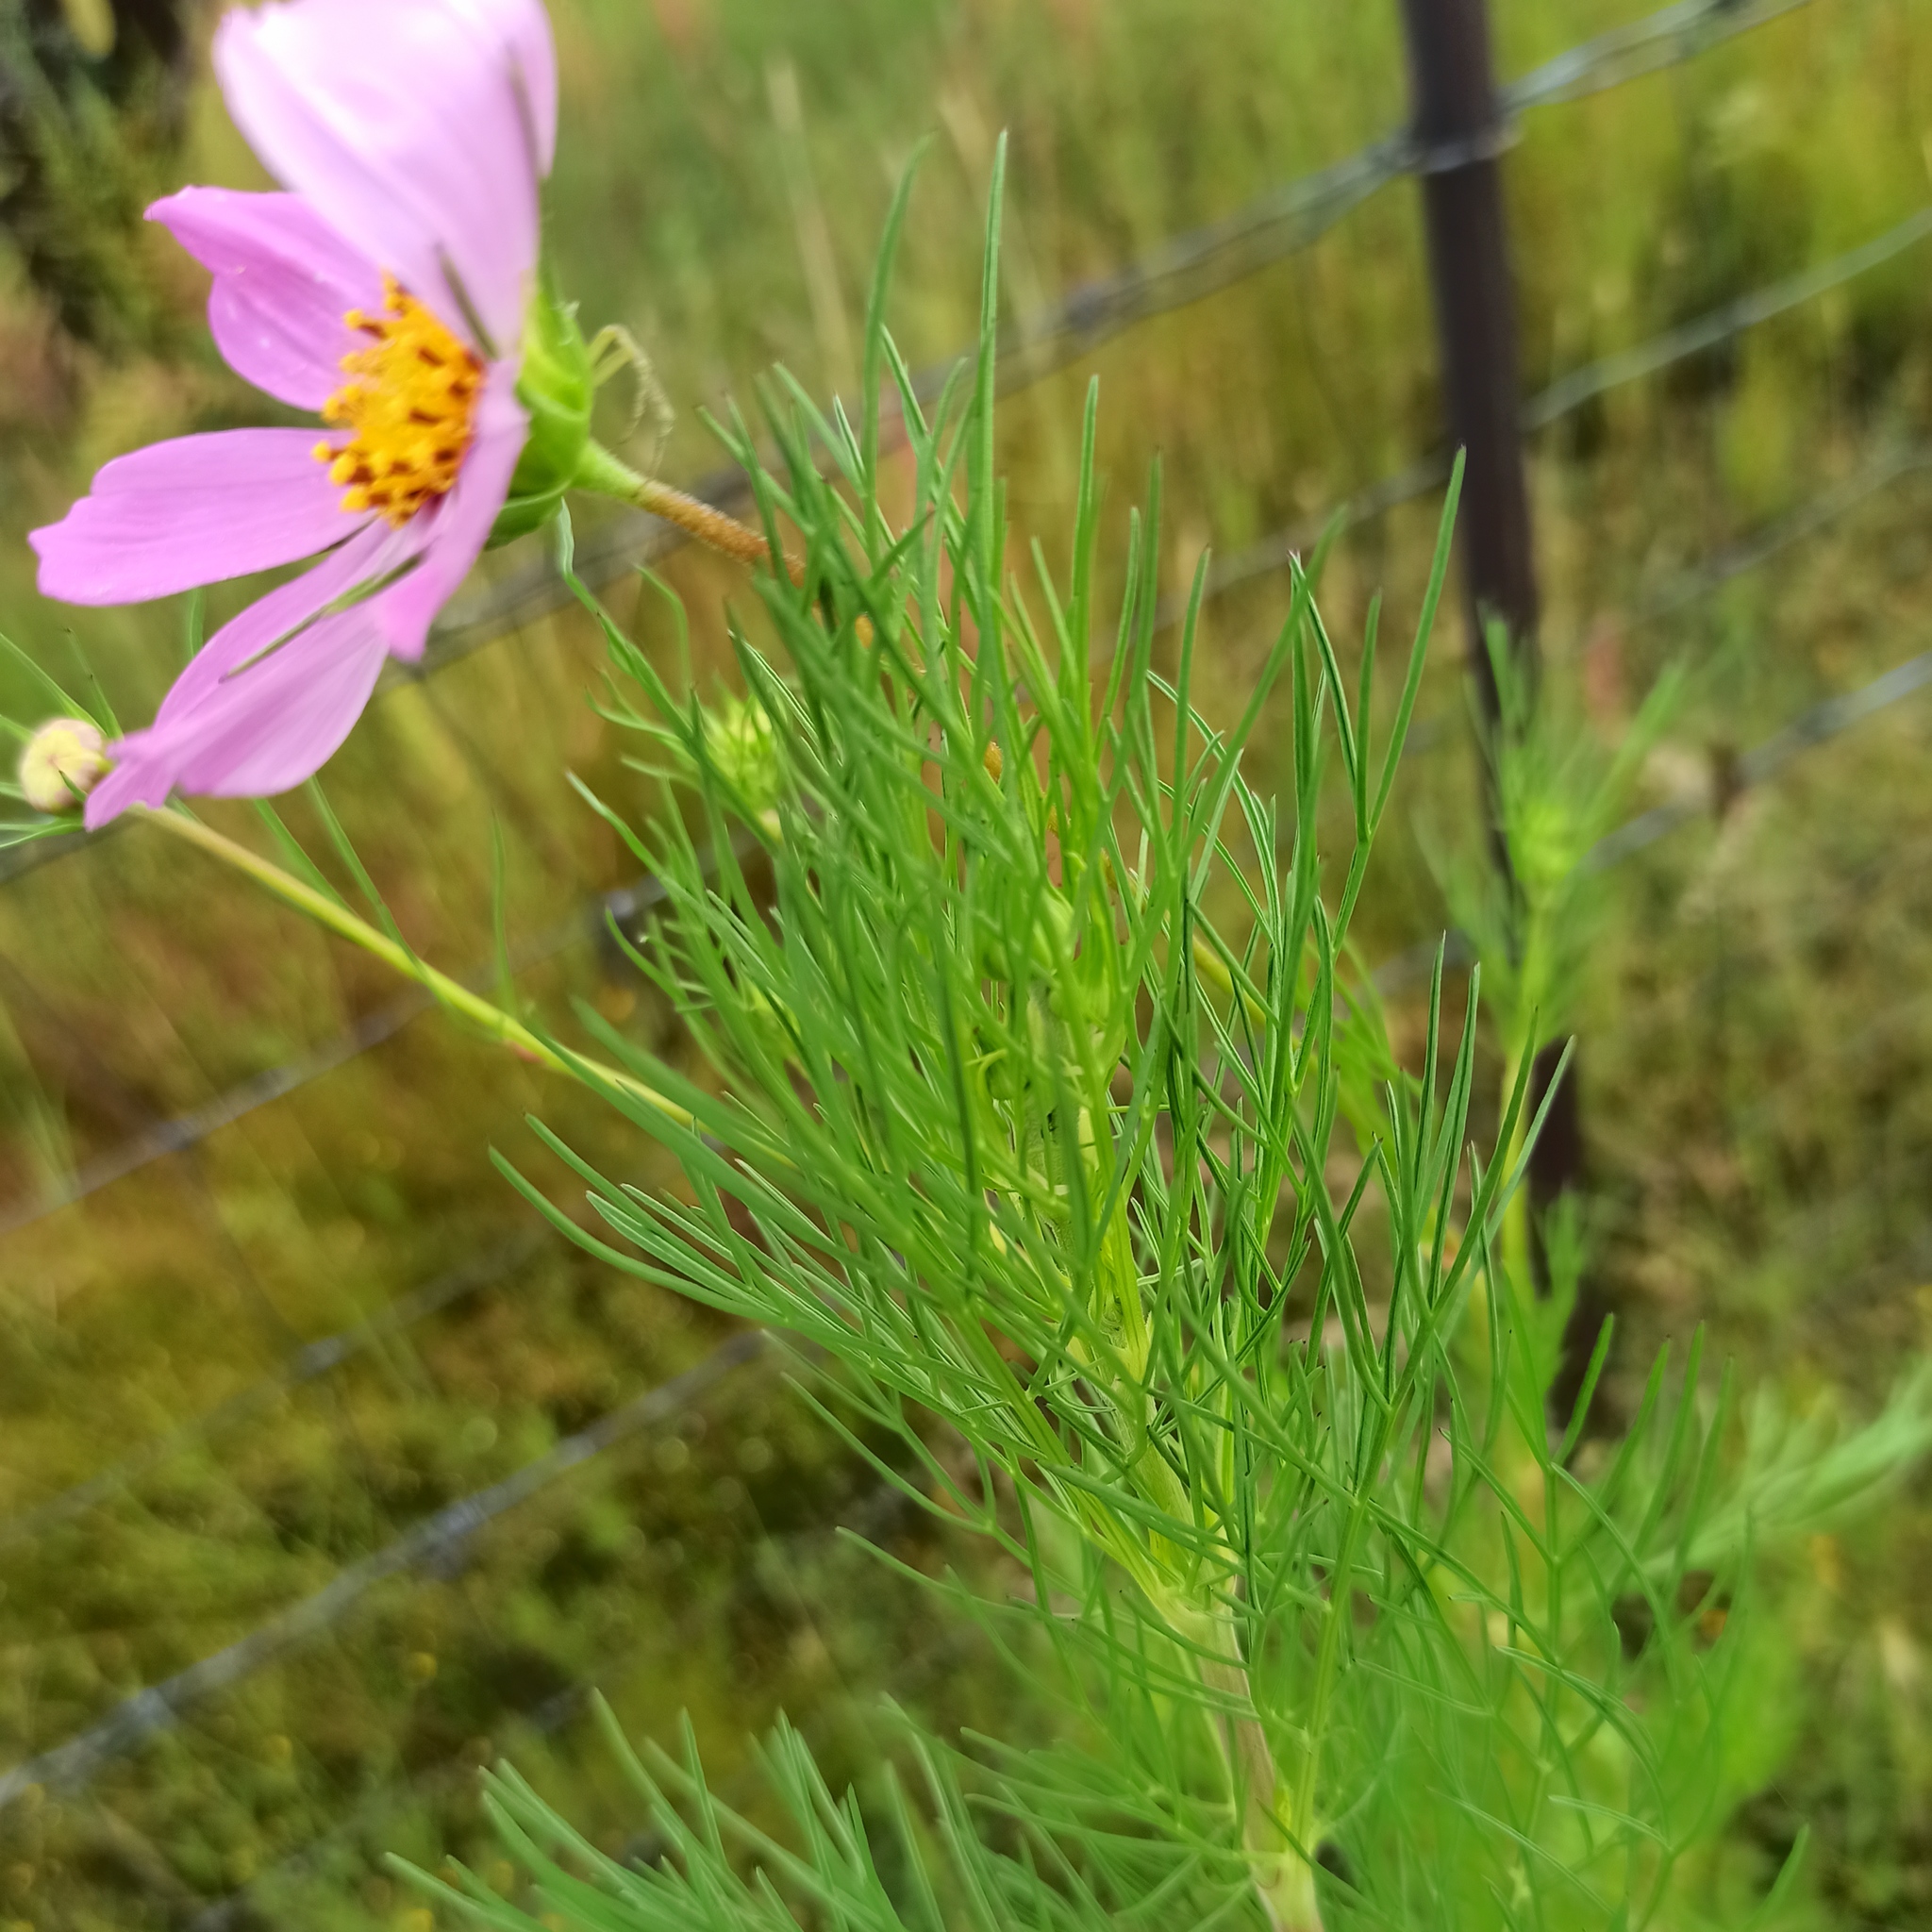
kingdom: Plantae
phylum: Tracheophyta
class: Magnoliopsida
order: Asterales
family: Asteraceae
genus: Cosmos
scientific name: Cosmos bipinnatus
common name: Garden cosmos
